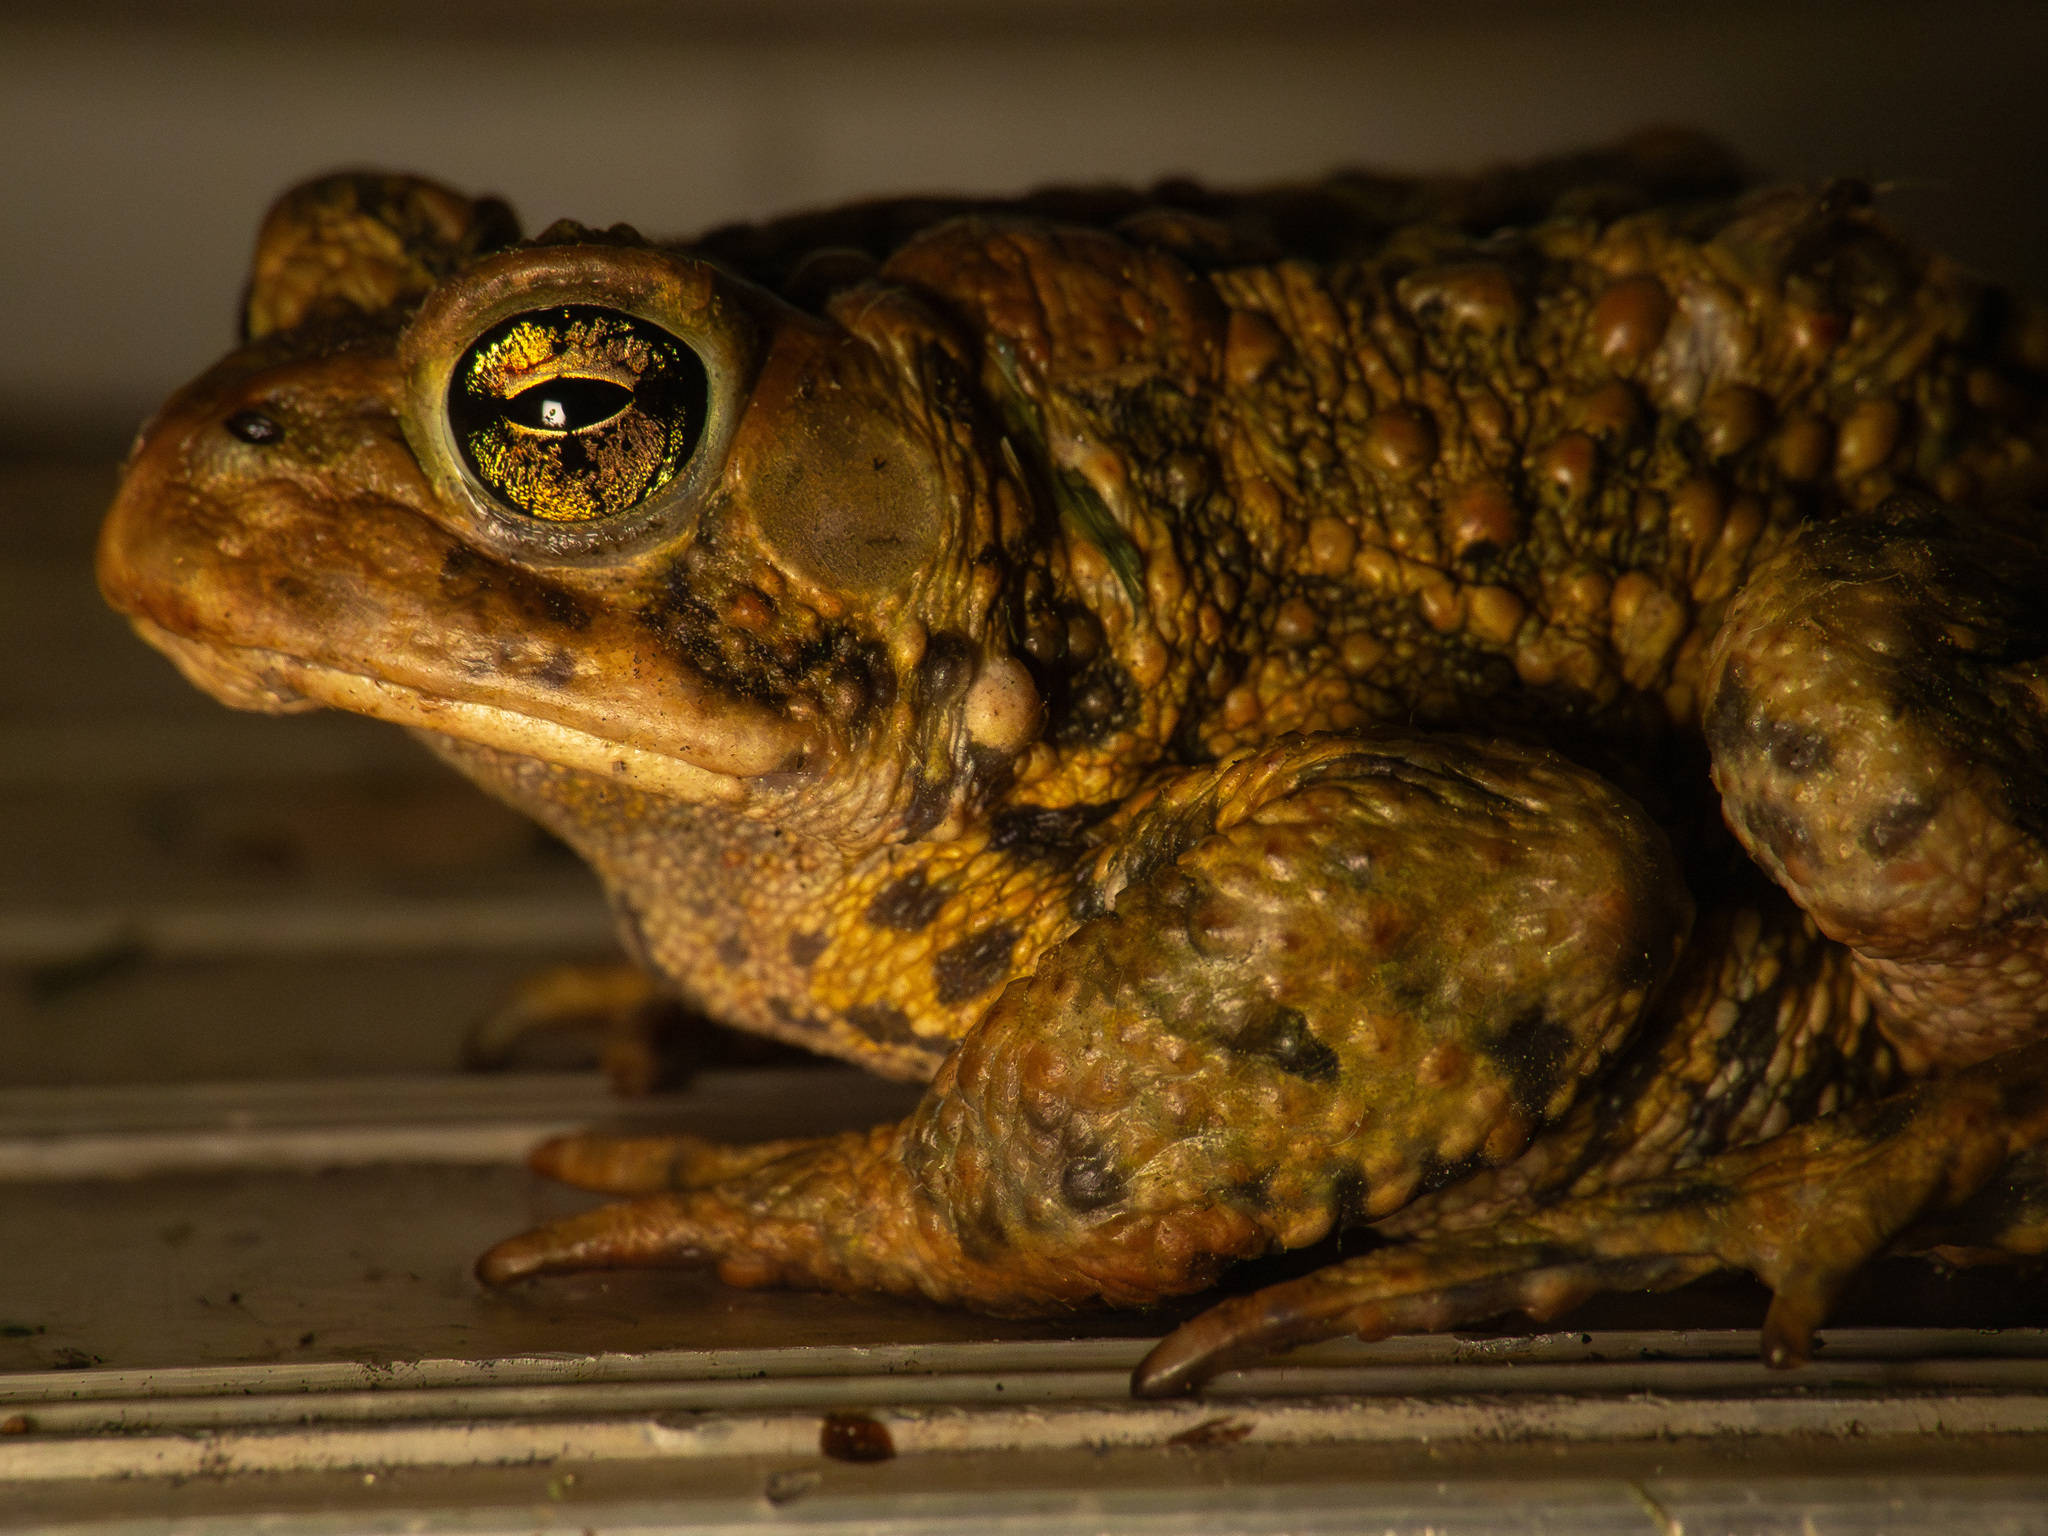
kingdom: Animalia
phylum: Chordata
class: Amphibia
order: Anura
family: Bufonidae
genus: Anaxyrus
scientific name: Anaxyrus americanus
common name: American toad
